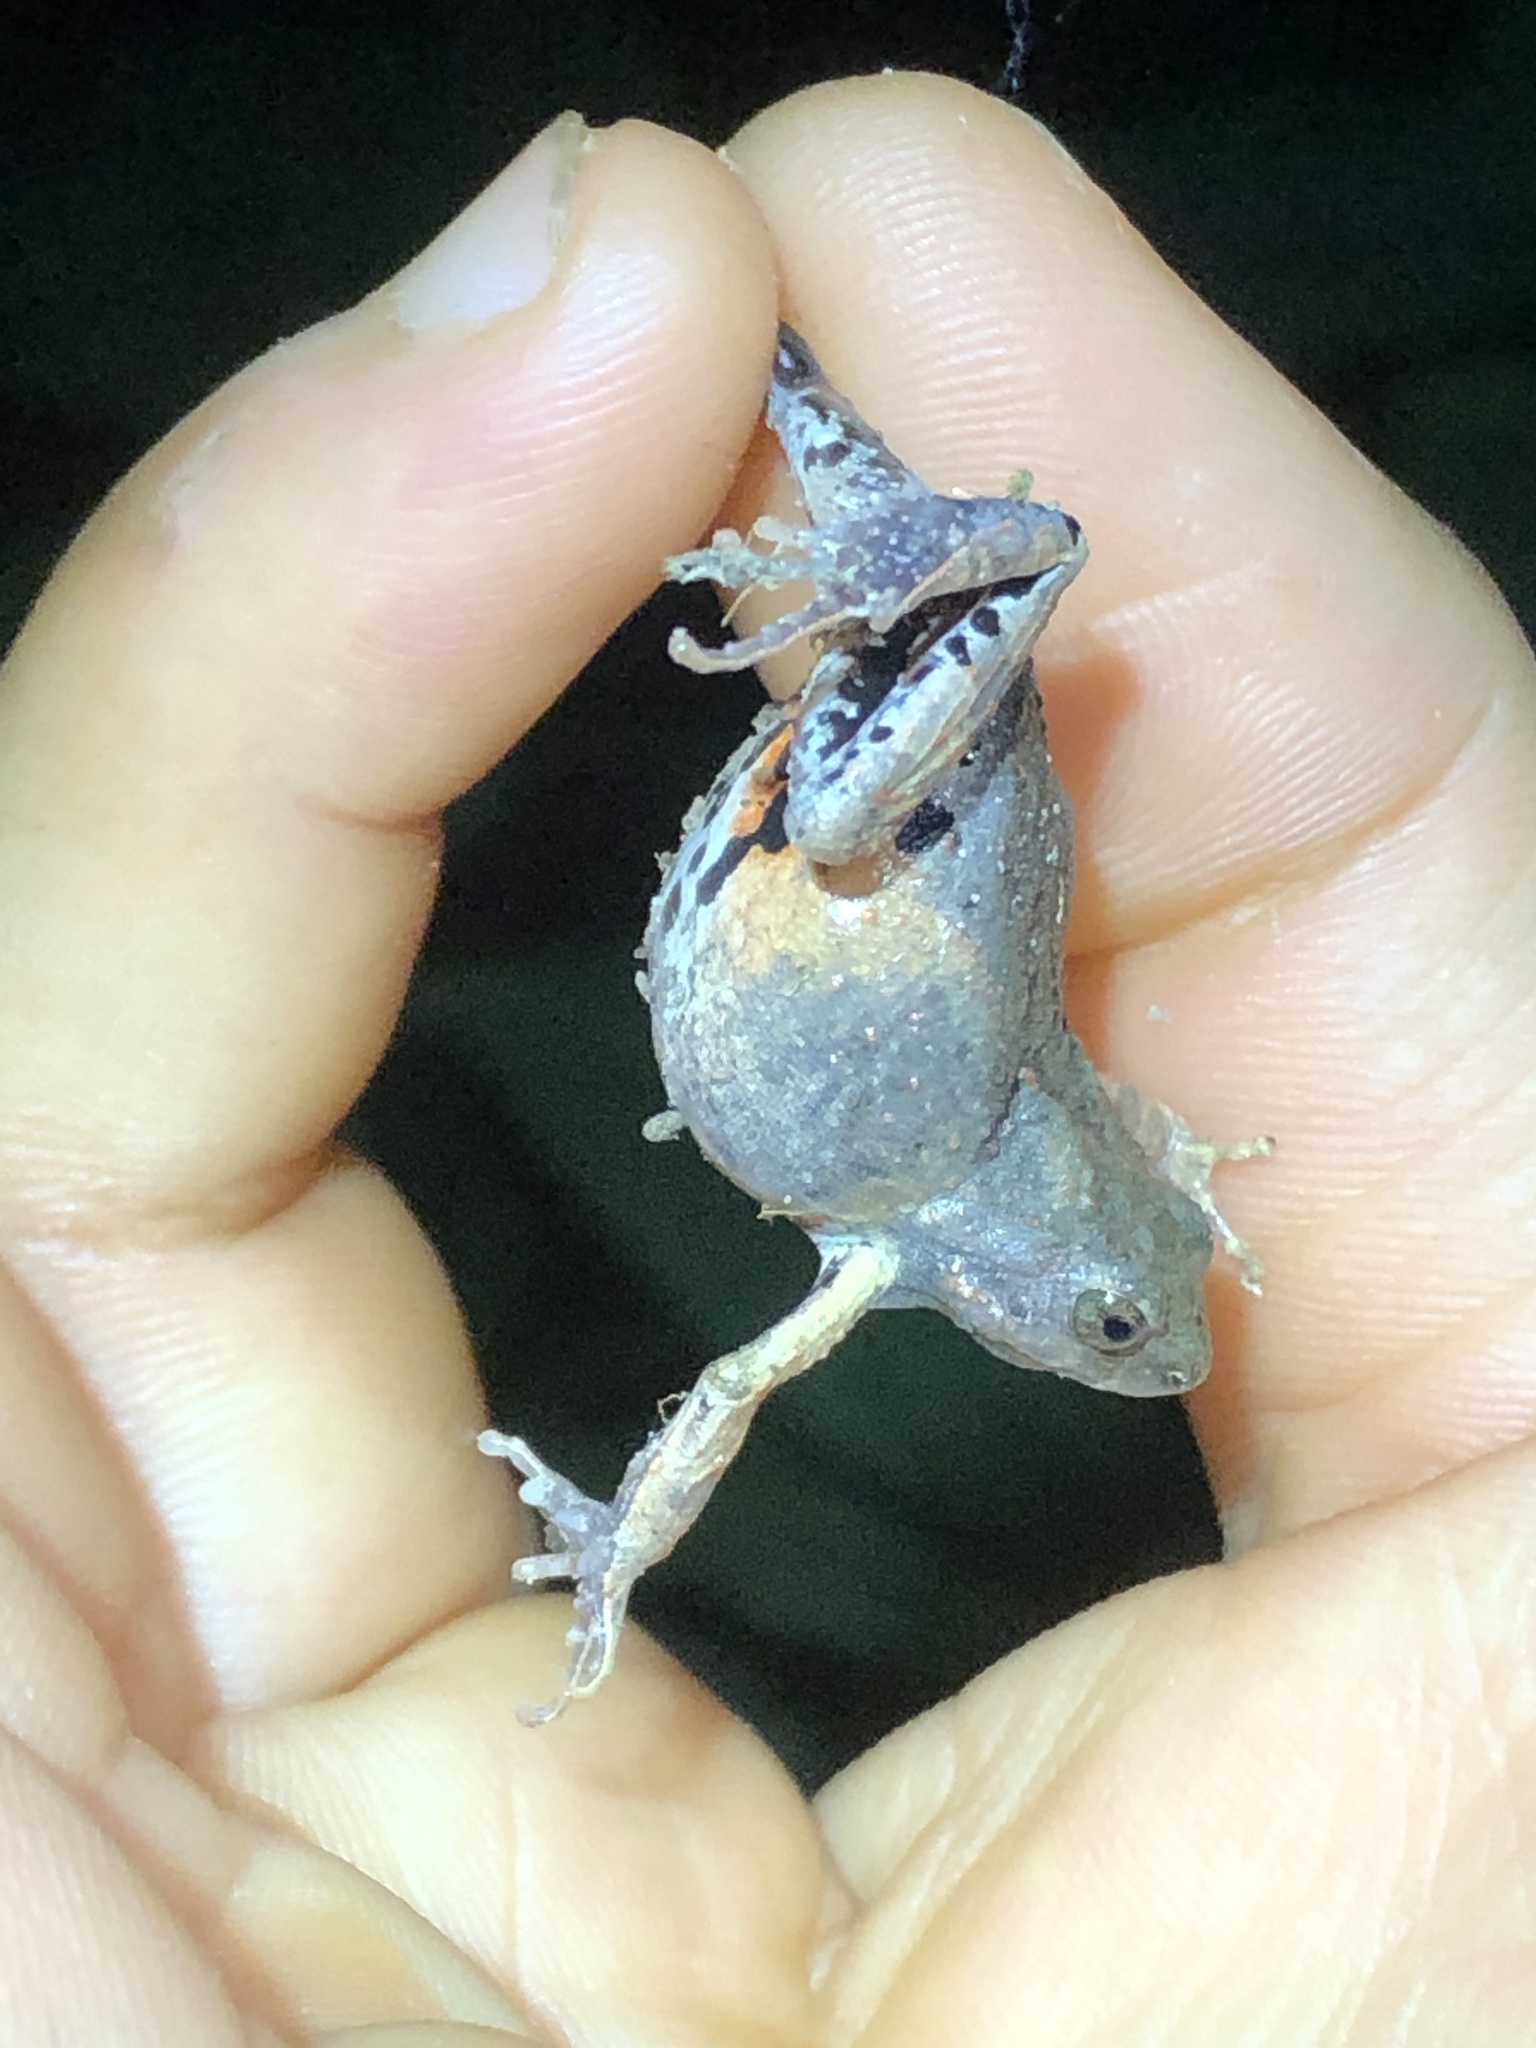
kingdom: Animalia
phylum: Chordata
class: Amphibia
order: Anura
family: Leptodactylidae
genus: Engystomops
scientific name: Engystomops petersi
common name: Peters’ dwarf frog
